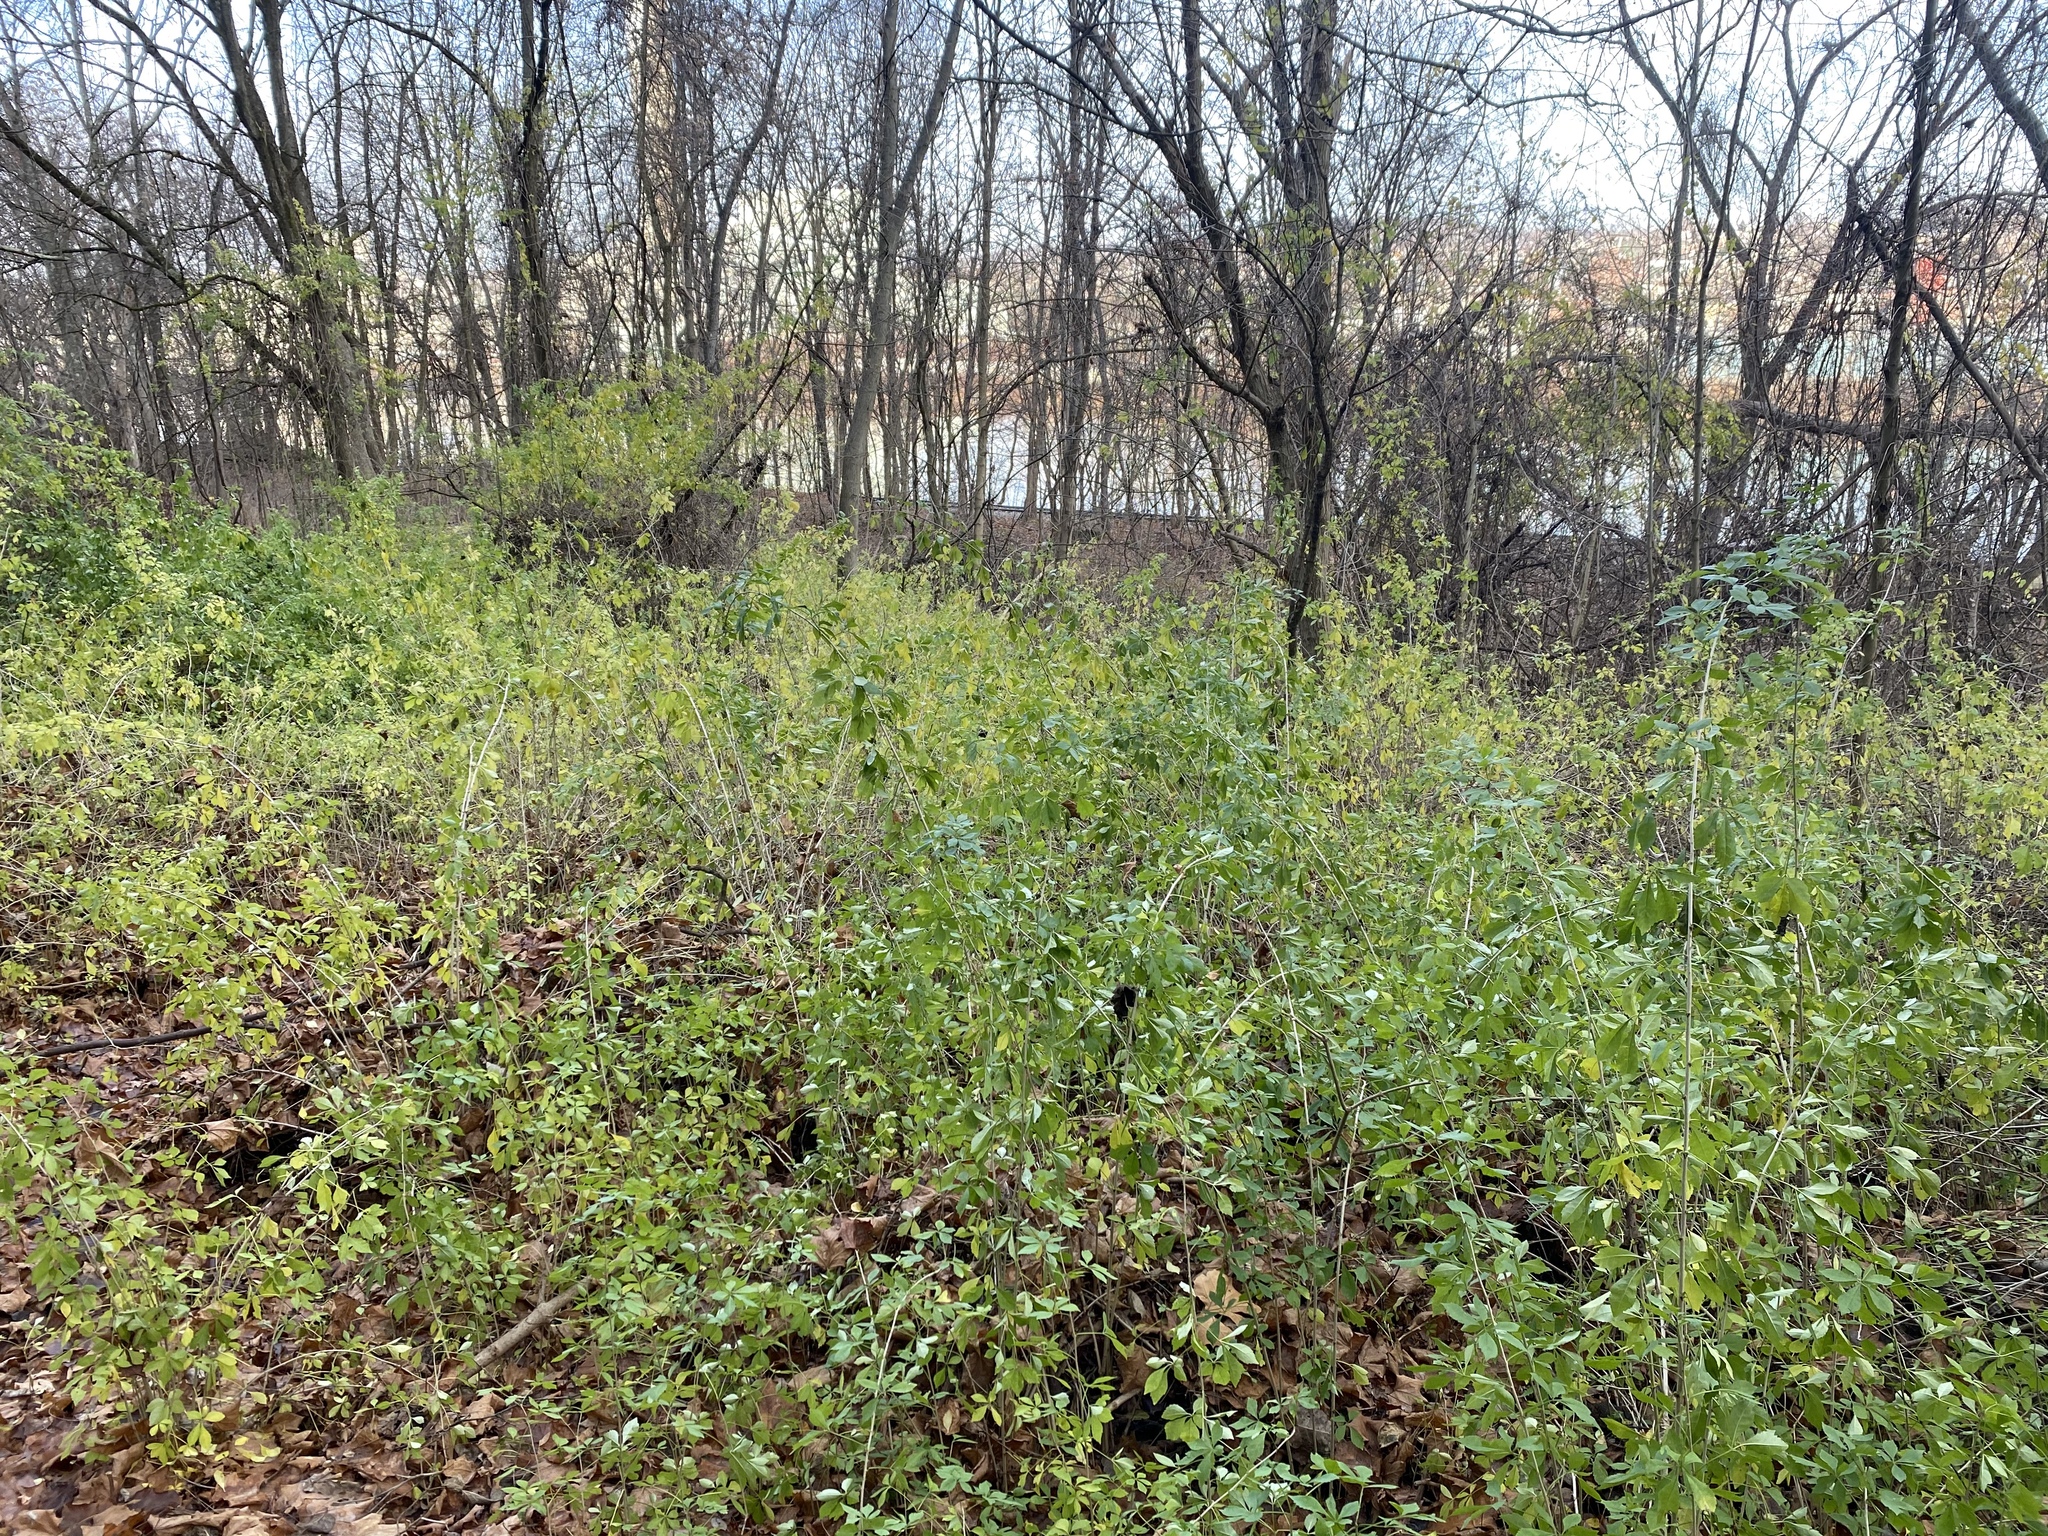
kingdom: Plantae
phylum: Tracheophyta
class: Magnoliopsida
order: Apiales
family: Araliaceae
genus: Eleutherococcus
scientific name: Eleutherococcus sieboldianus
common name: Ginseng
